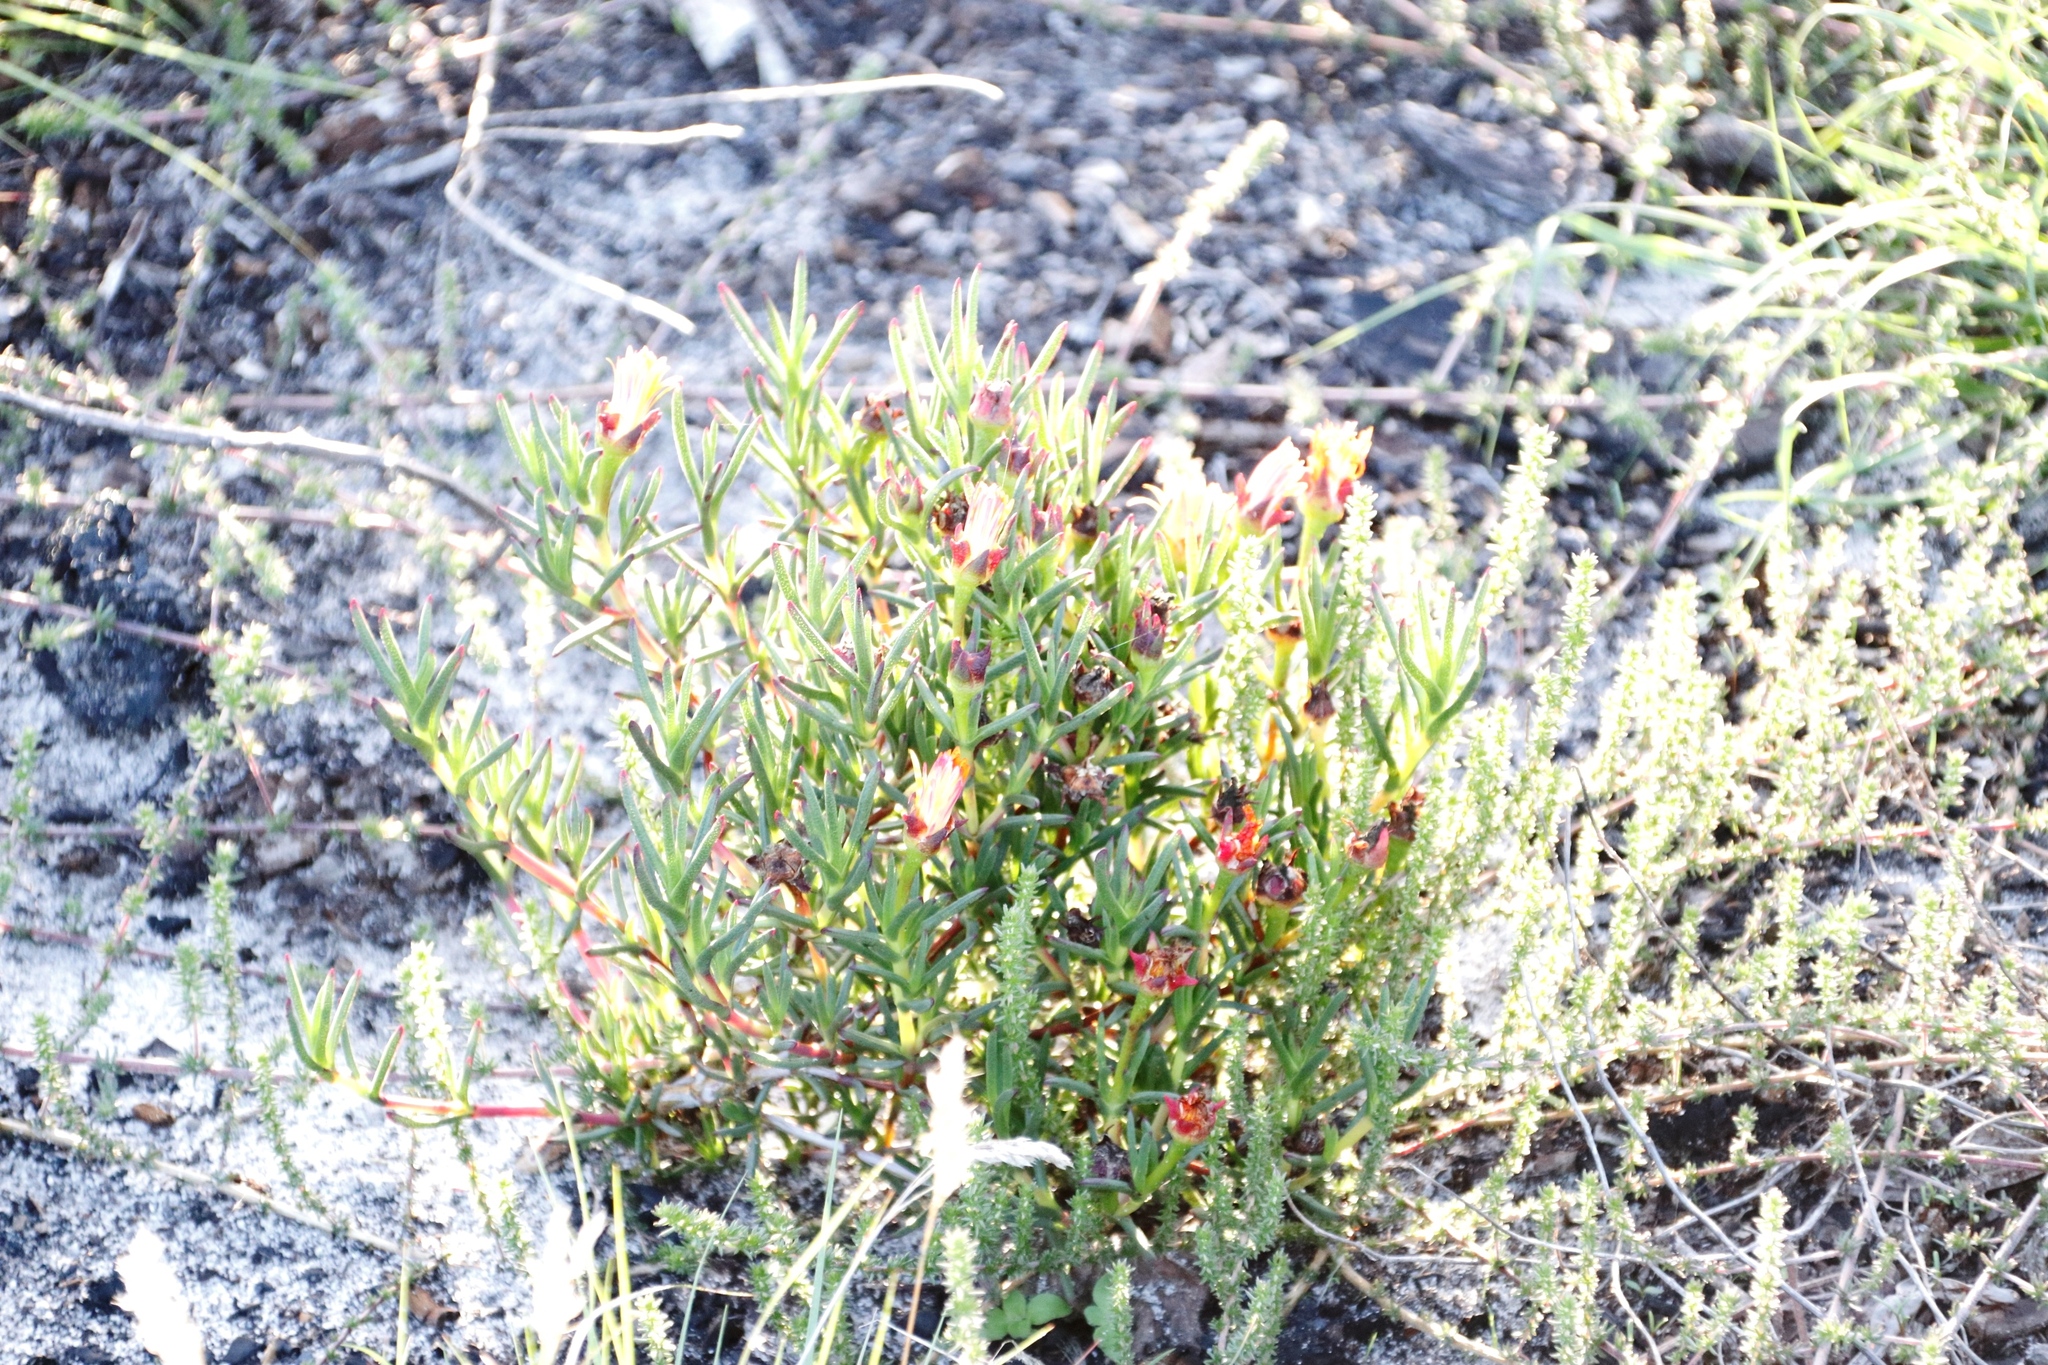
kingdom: Plantae
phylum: Tracheophyta
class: Magnoliopsida
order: Caryophyllales
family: Aizoaceae
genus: Lampranthus
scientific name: Lampranthus bicolor
